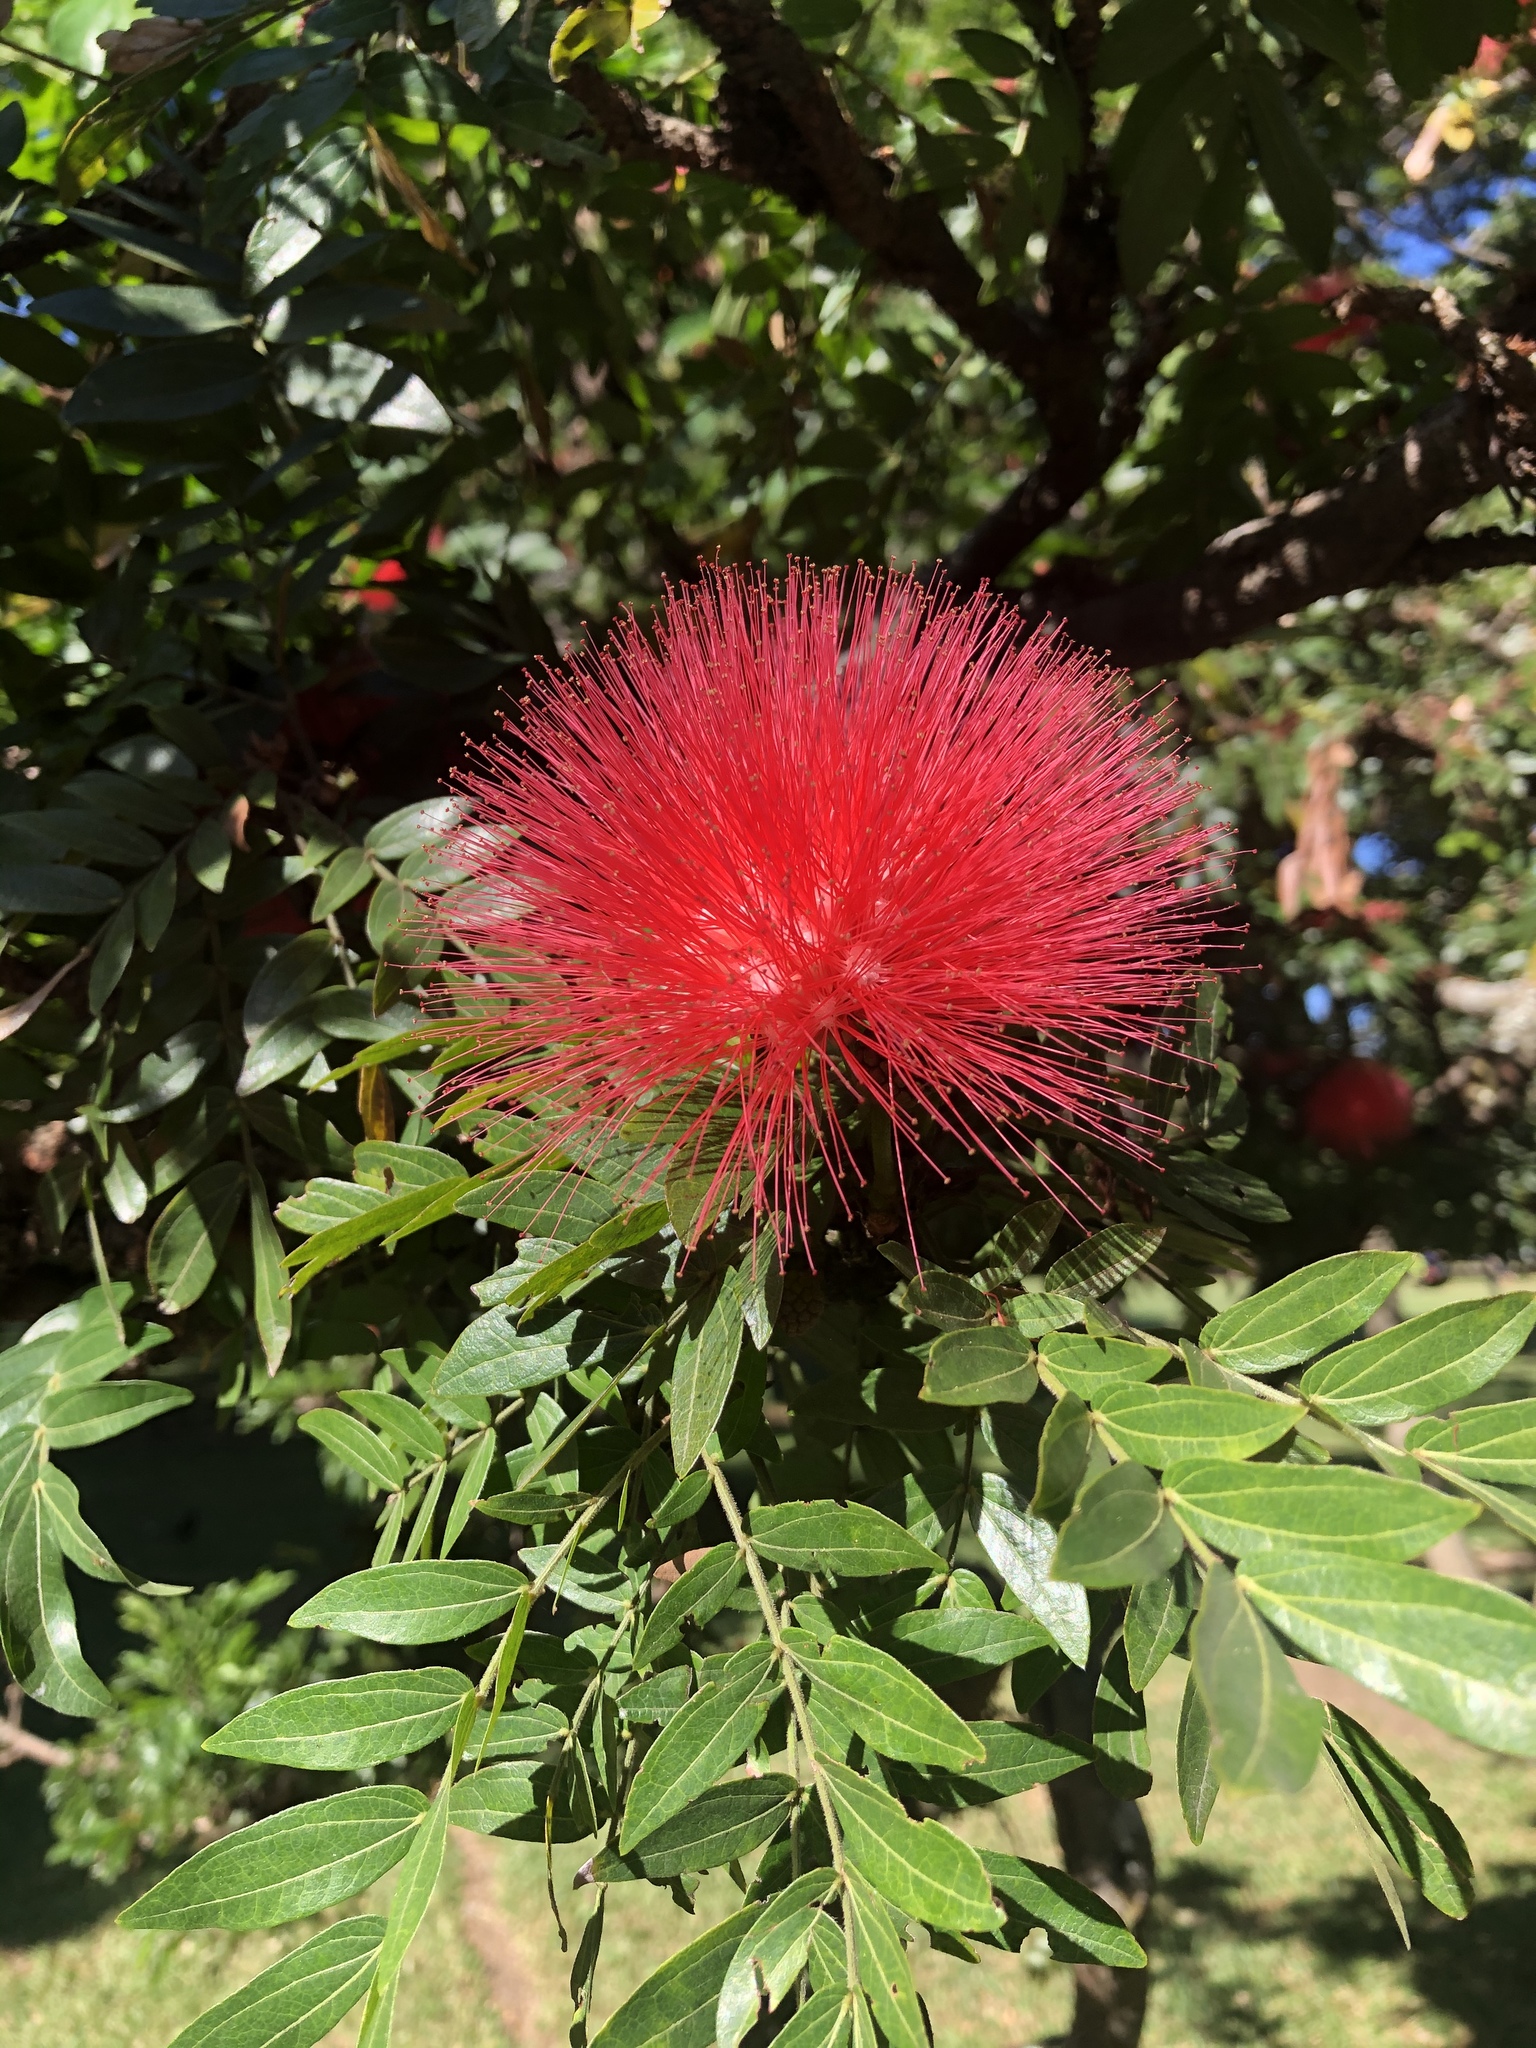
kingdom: Plantae
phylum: Tracheophyta
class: Magnoliopsida
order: Fabales
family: Fabaceae
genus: Calliandra
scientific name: Calliandra haematocephala
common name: Blood red tassel flower
